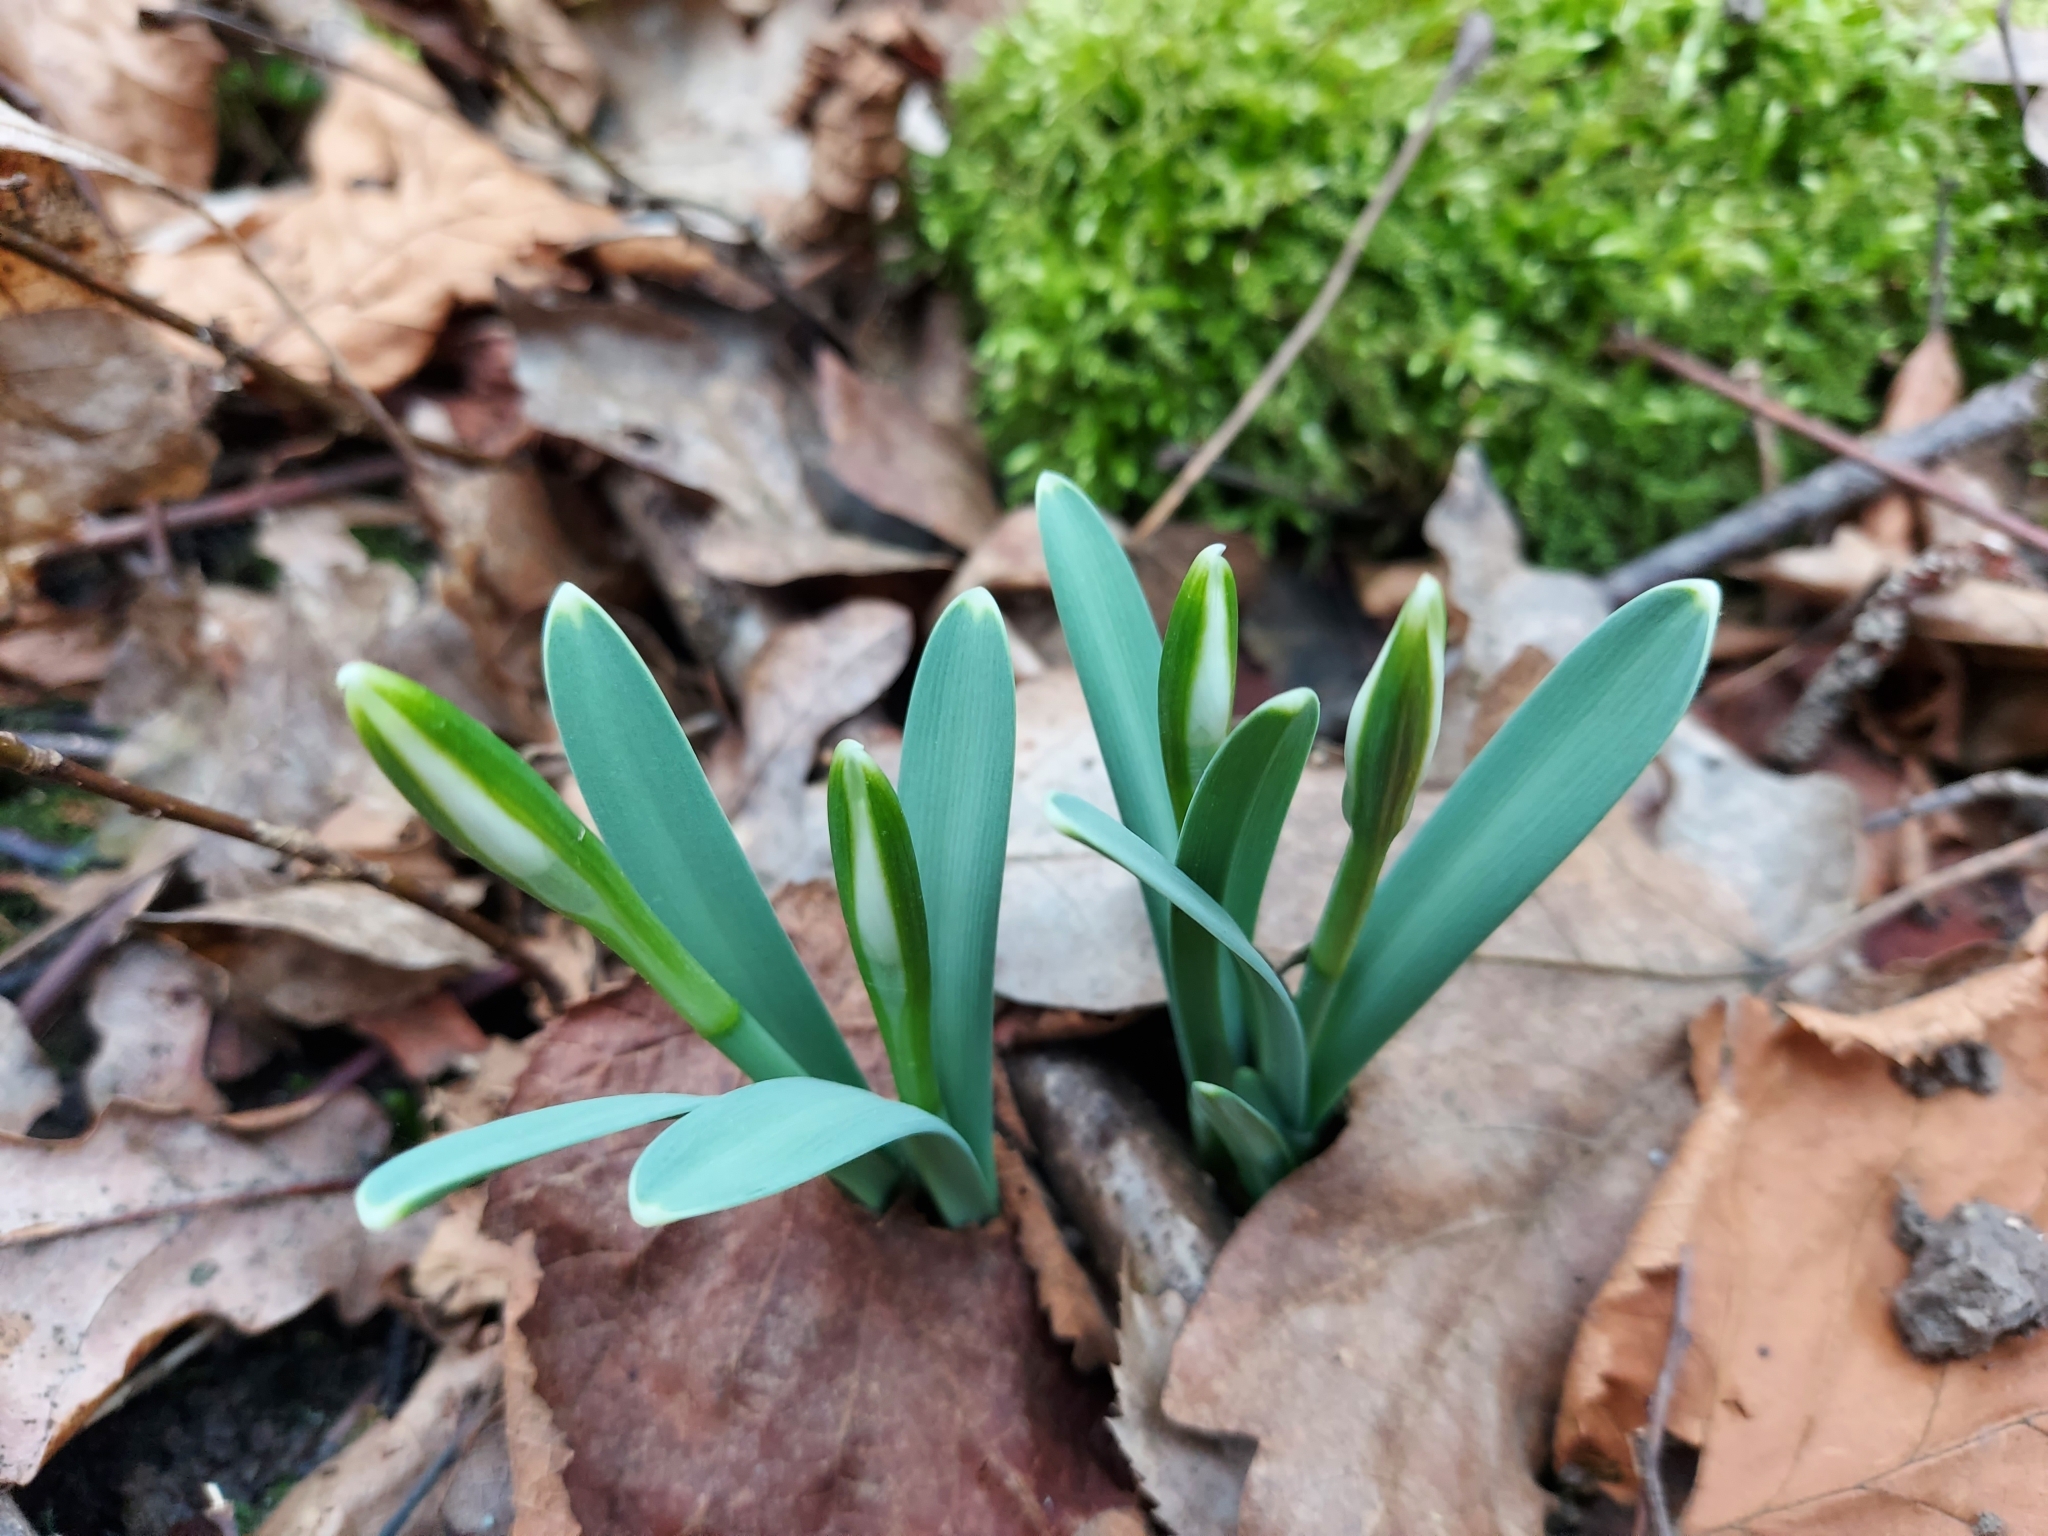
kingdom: Plantae
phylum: Tracheophyta
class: Liliopsida
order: Asparagales
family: Amaryllidaceae
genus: Galanthus
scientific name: Galanthus nivalis
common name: Snowdrop
